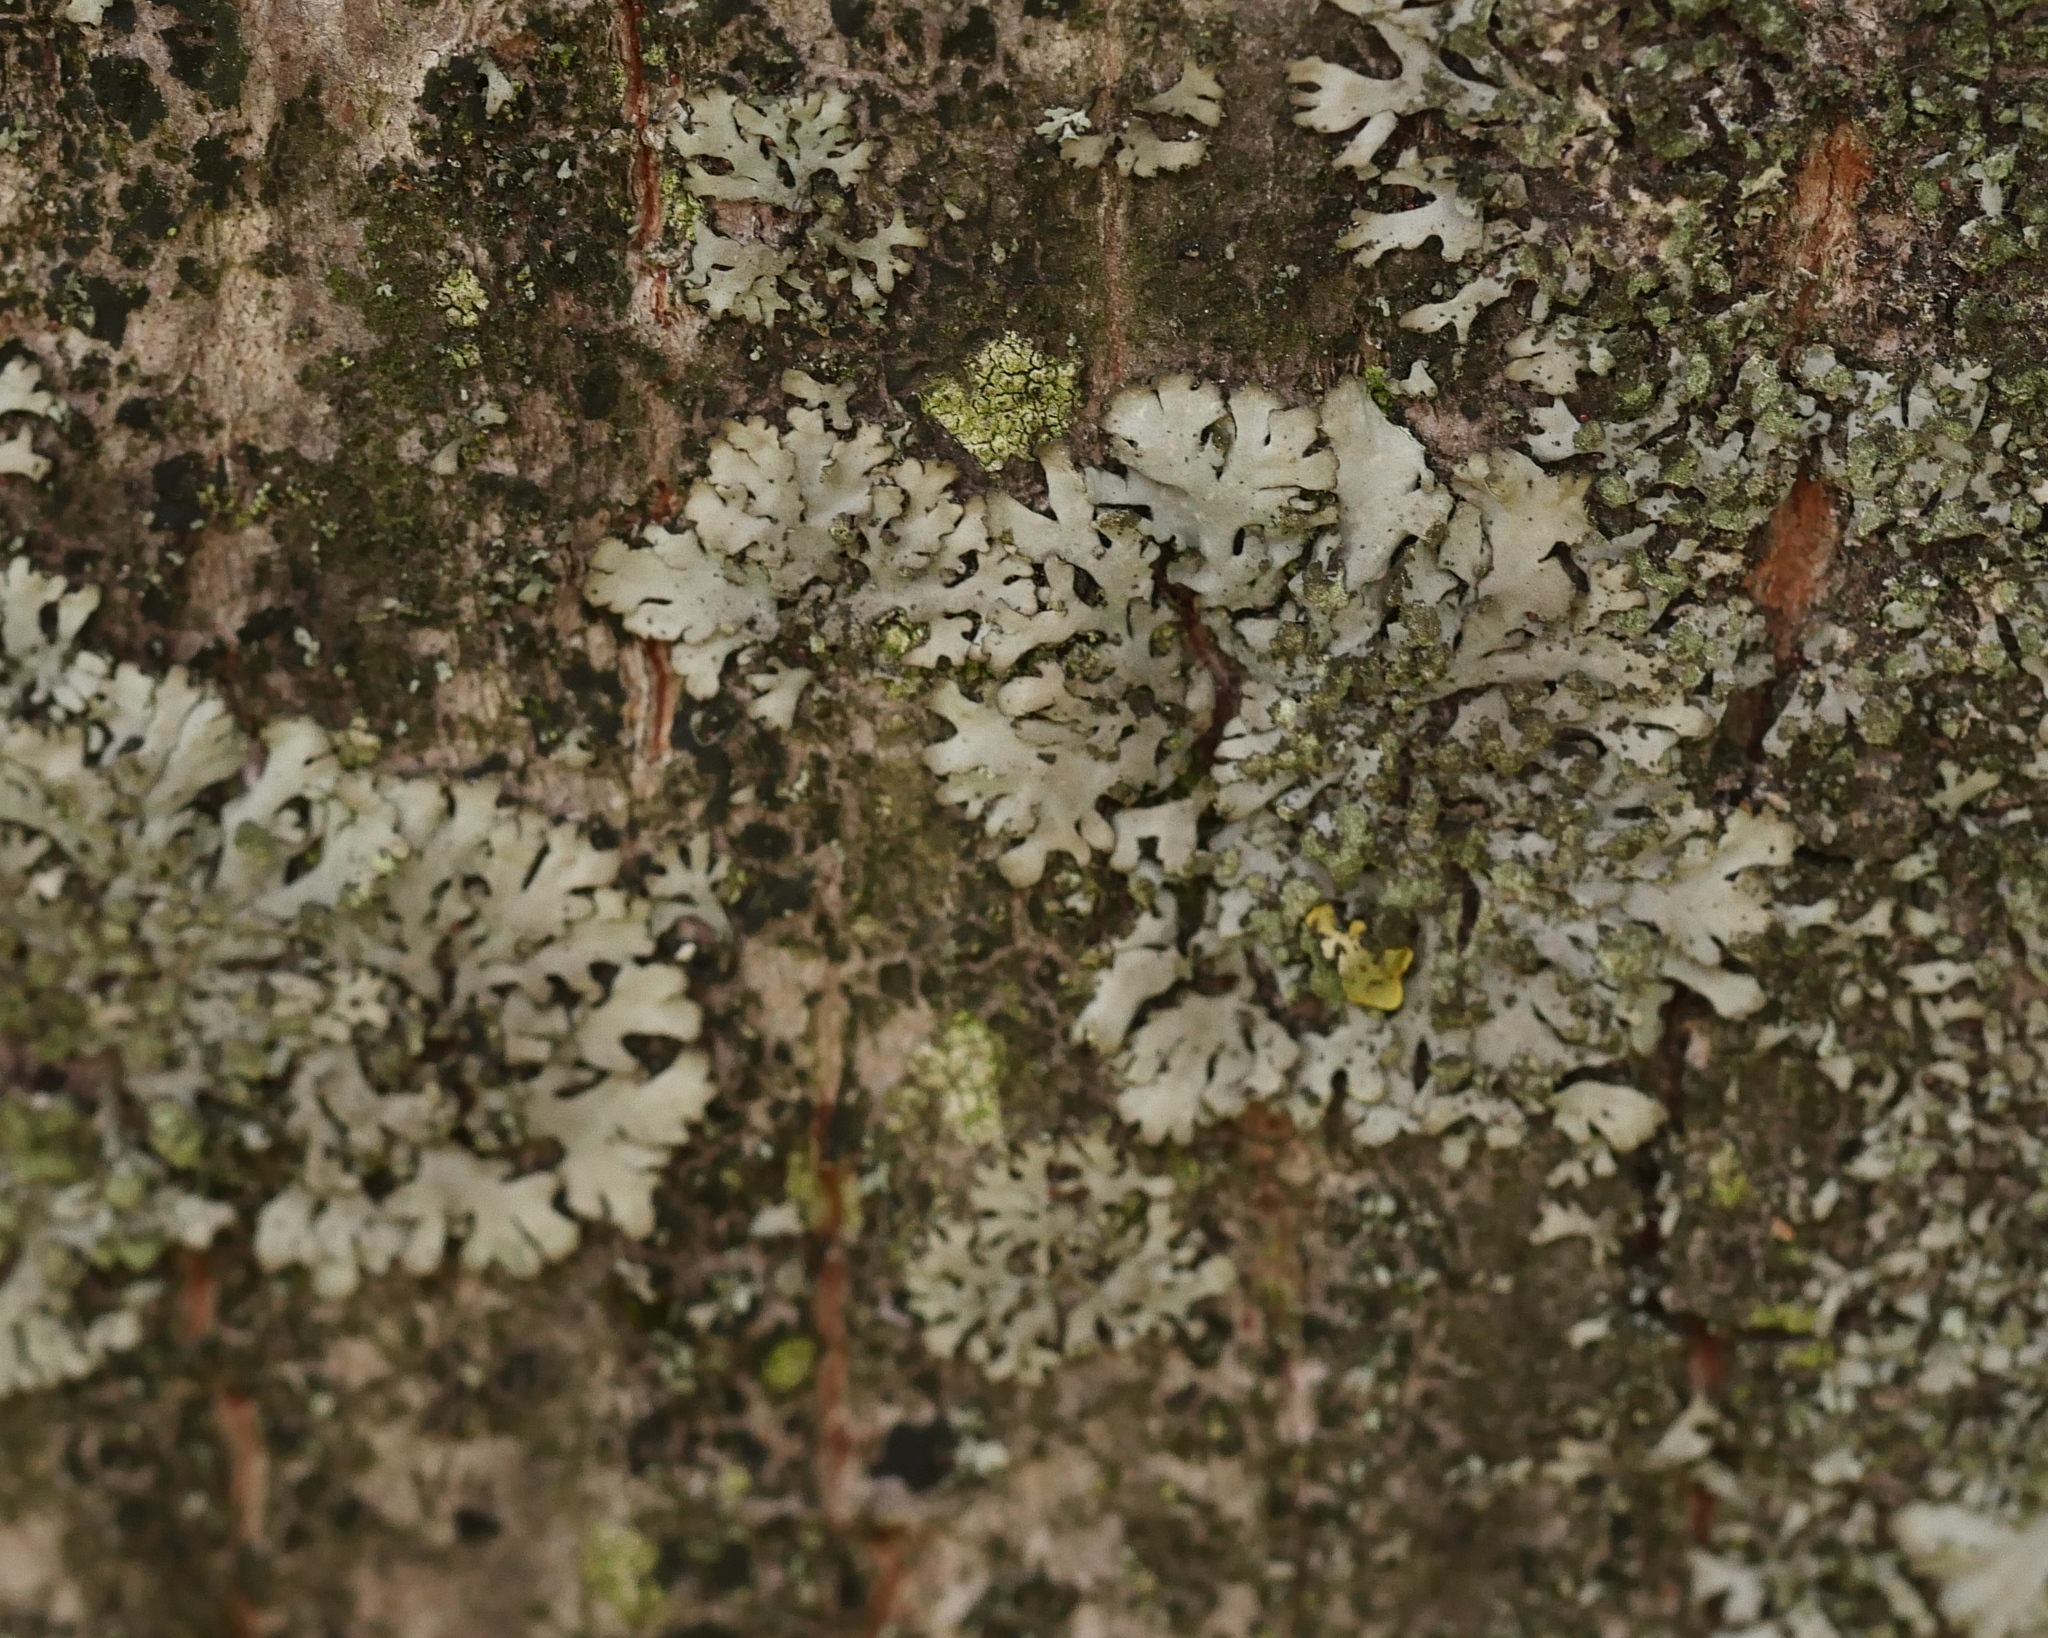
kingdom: Fungi
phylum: Ascomycota
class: Lecanoromycetes
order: Caliciales
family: Physciaceae
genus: Phaeophyscia
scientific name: Phaeophyscia orbicularis
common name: Mealy shadow lichen
